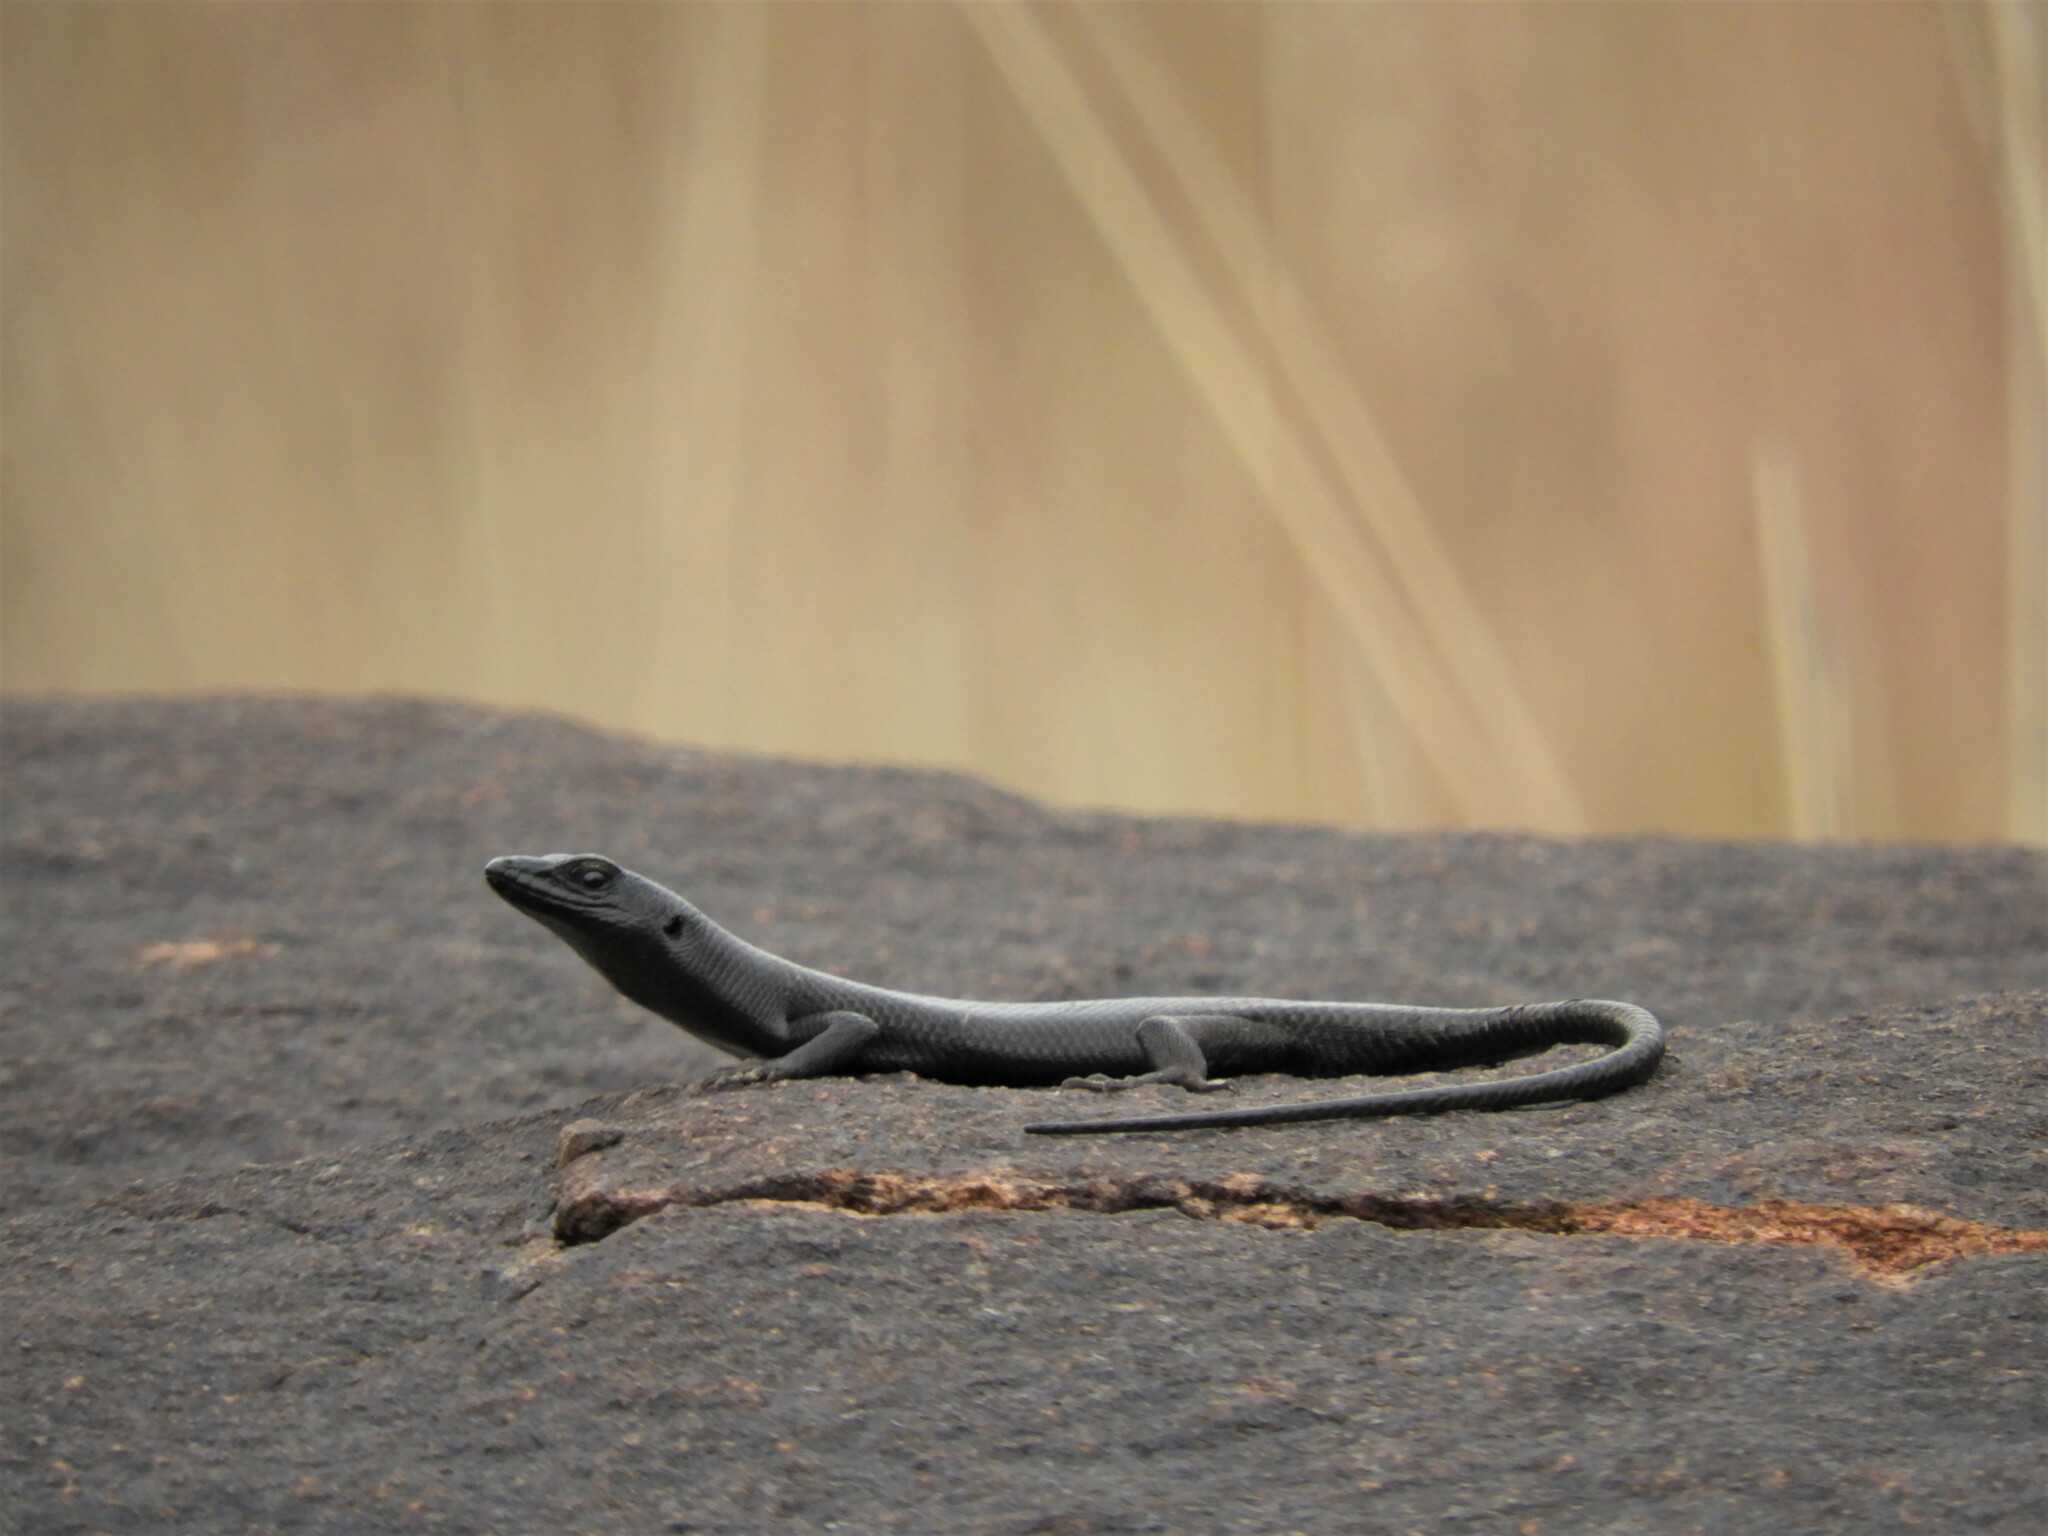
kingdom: Animalia
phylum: Chordata
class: Squamata
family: Scincidae
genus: Trachylepis
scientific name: Trachylepis sulcata
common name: Western rock skink
